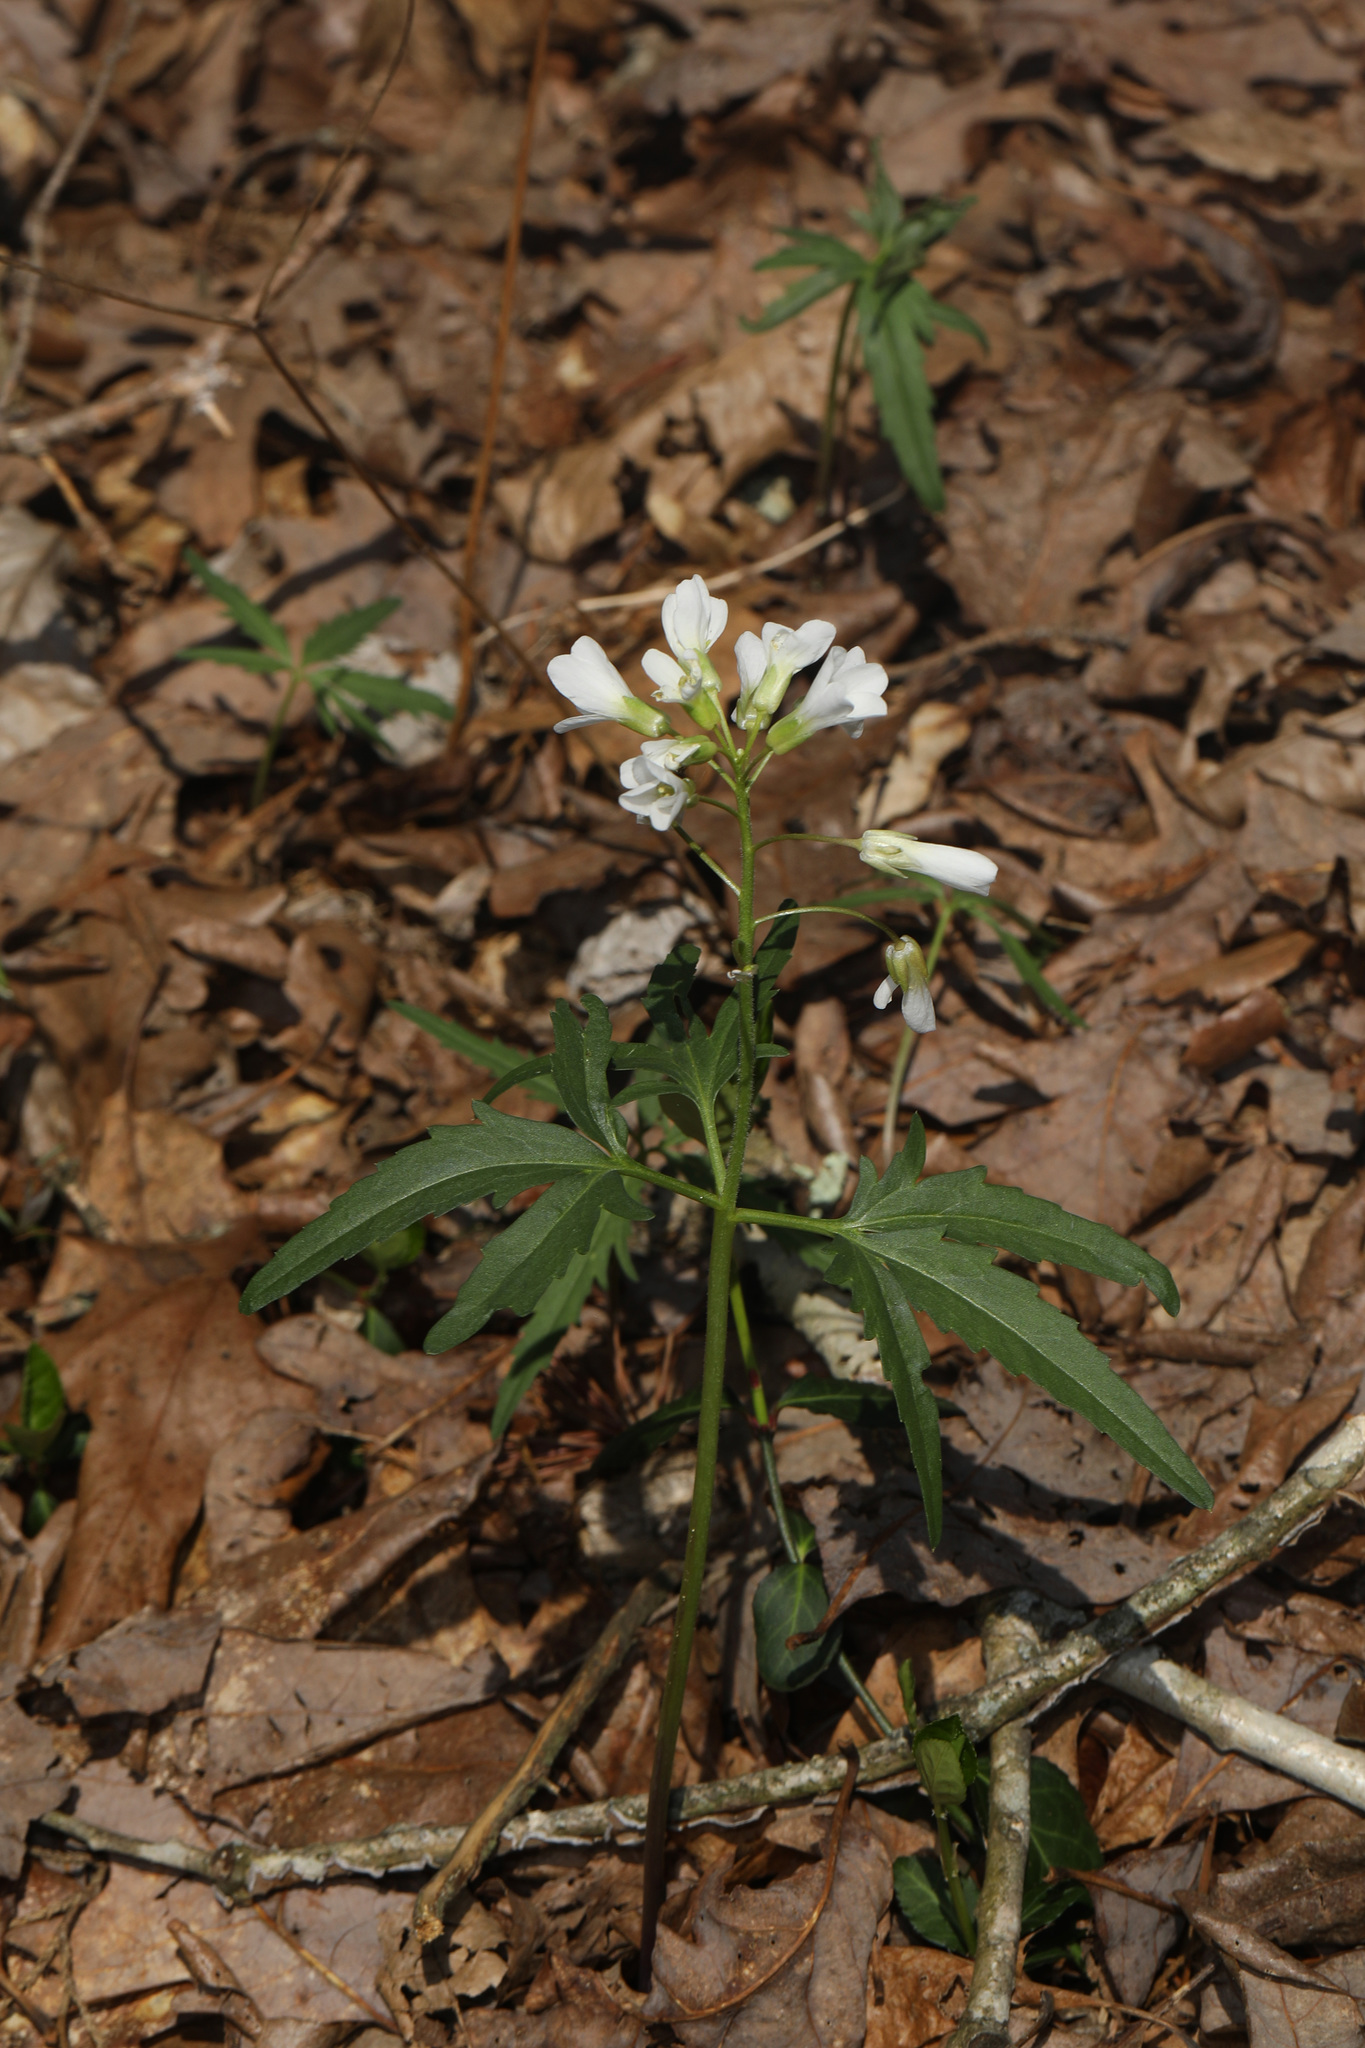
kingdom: Plantae
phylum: Tracheophyta
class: Magnoliopsida
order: Brassicales
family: Brassicaceae
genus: Cardamine
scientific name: Cardamine concatenata
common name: Cut-leaf toothcup
